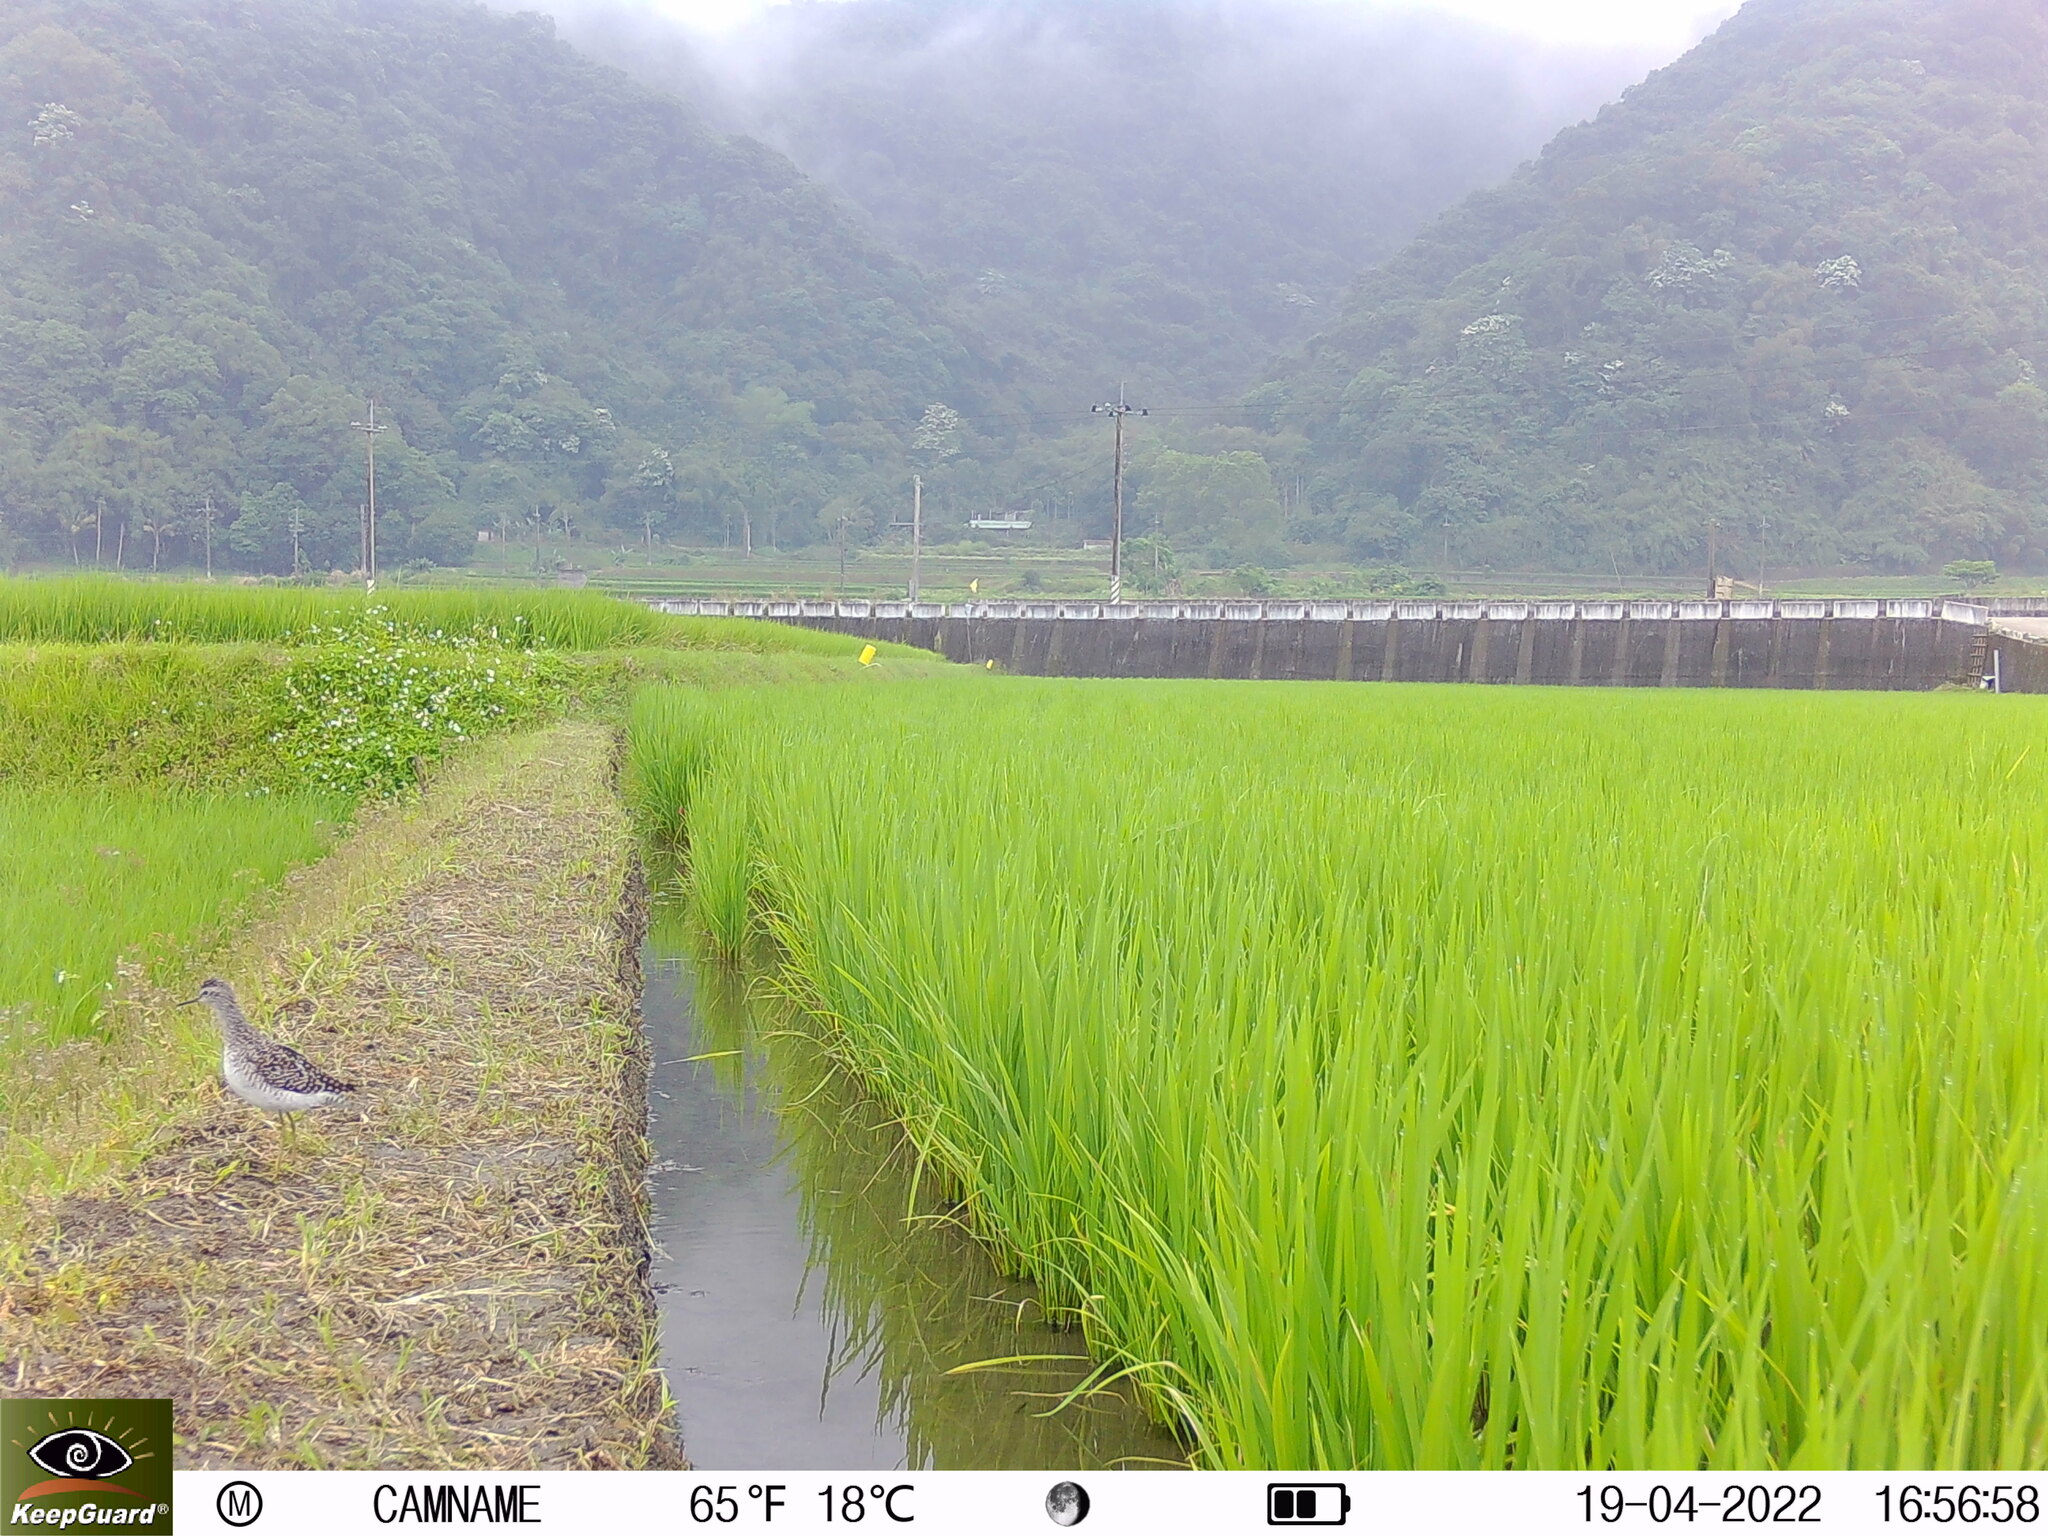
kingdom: Animalia
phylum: Chordata
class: Aves
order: Charadriiformes
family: Scolopacidae
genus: Tringa
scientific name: Tringa glareola
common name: Wood sandpiper
